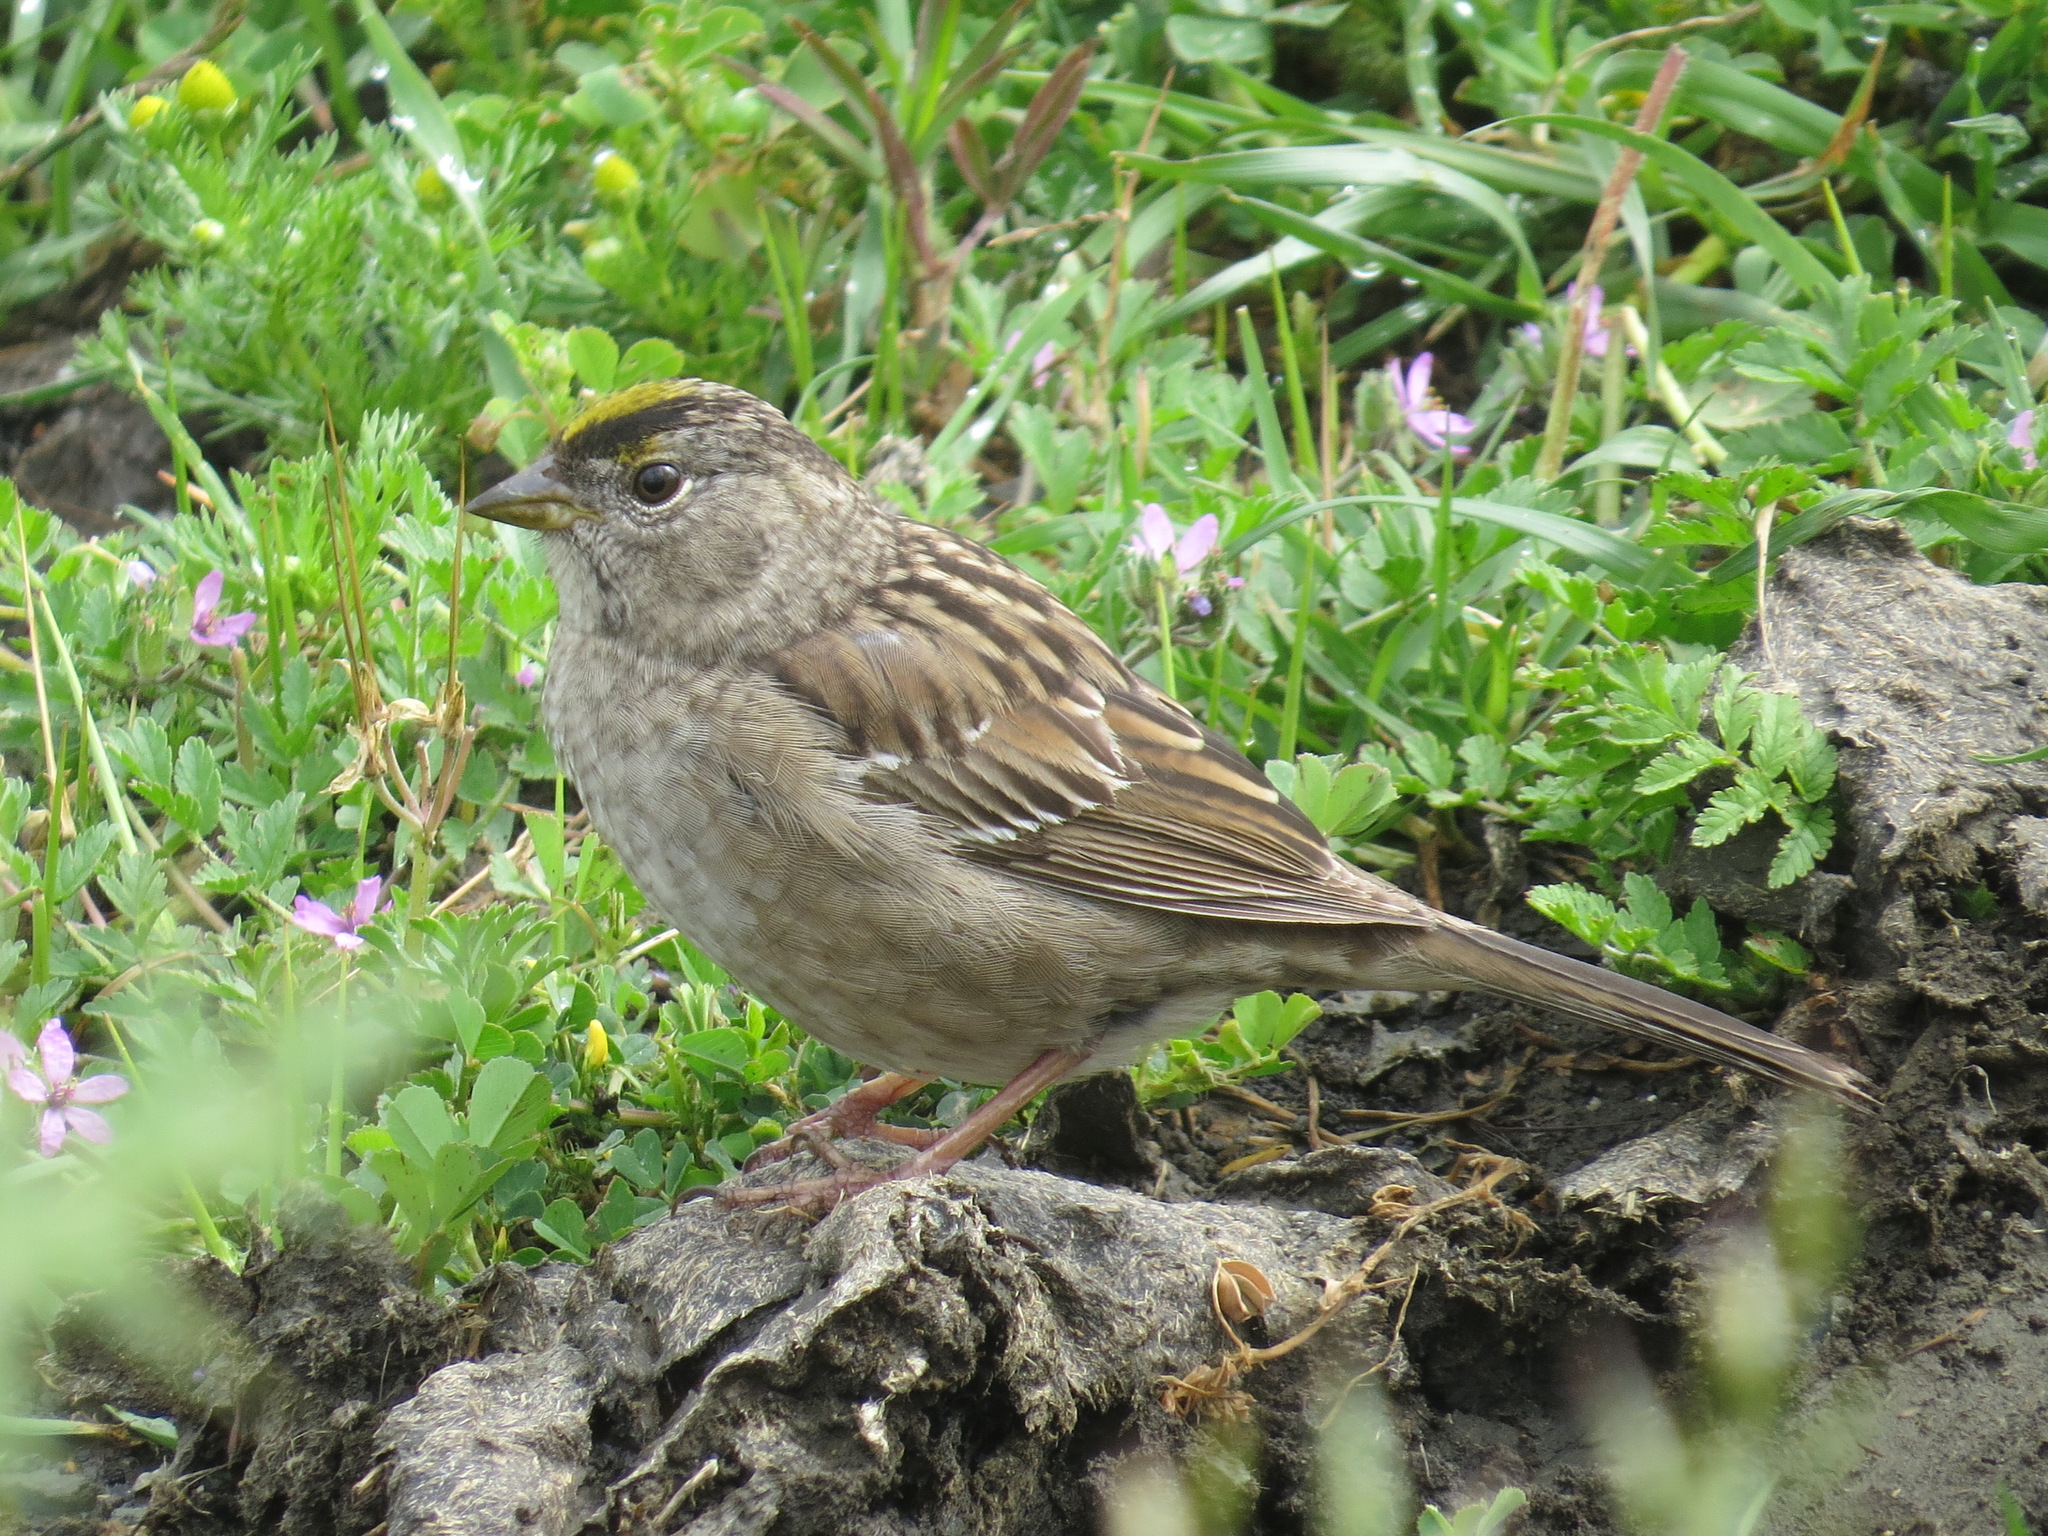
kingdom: Animalia
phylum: Chordata
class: Aves
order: Passeriformes
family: Passerellidae
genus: Zonotrichia
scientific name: Zonotrichia atricapilla
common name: Golden-crowned sparrow
